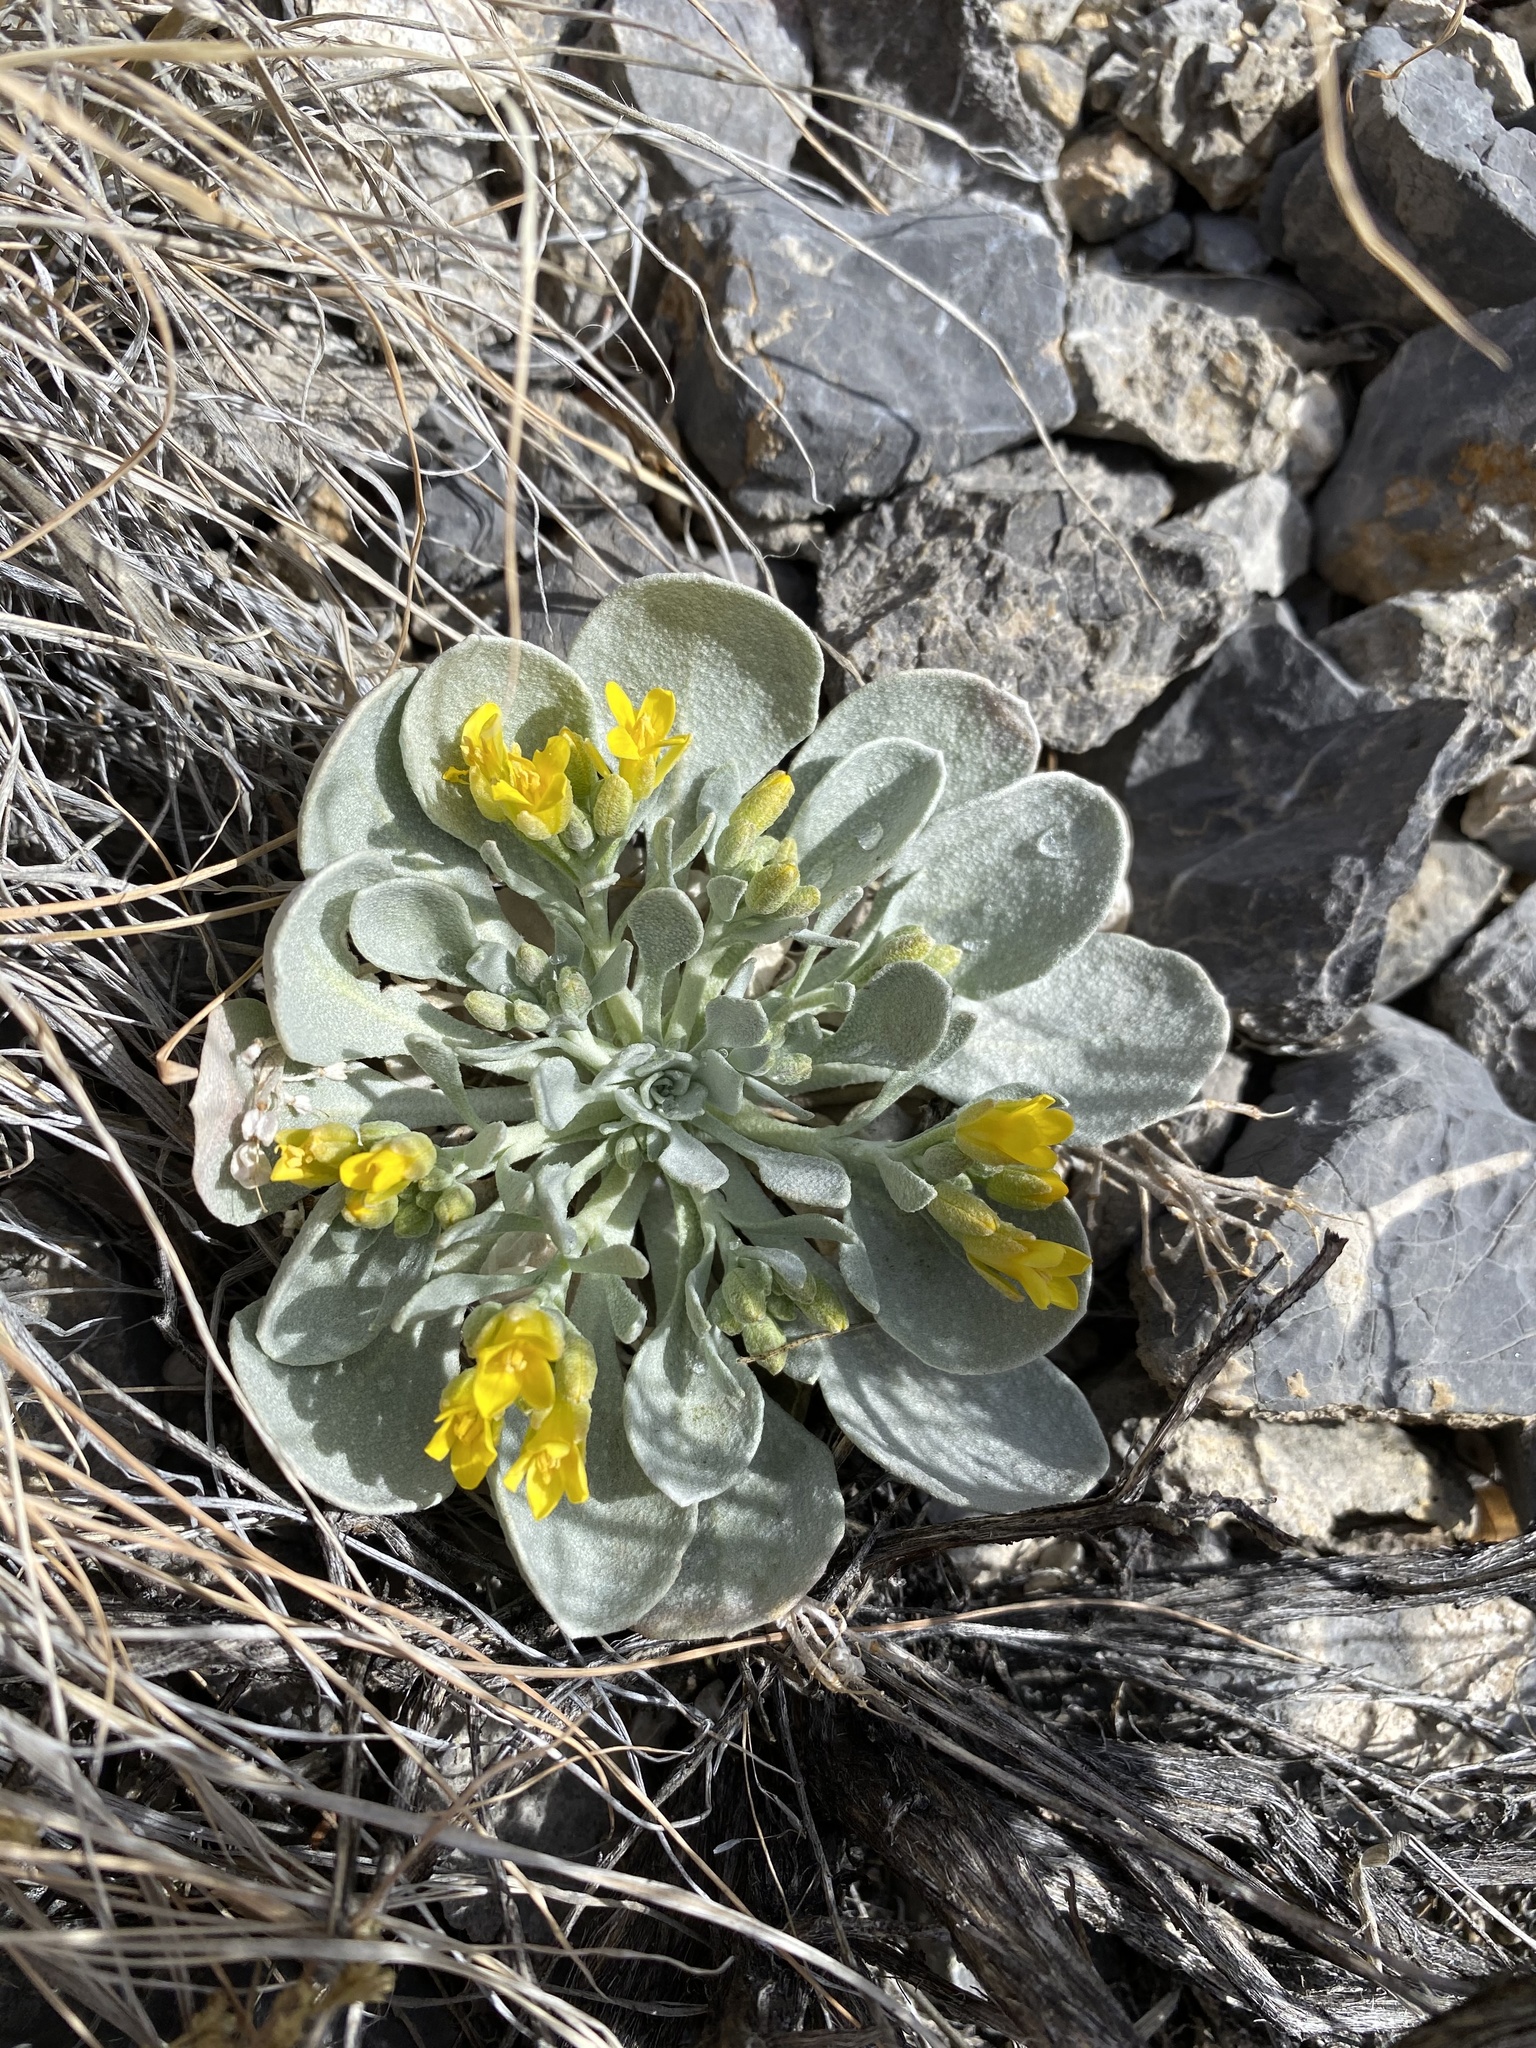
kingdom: Plantae
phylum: Tracheophyta
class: Magnoliopsida
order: Brassicales
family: Brassicaceae
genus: Physaria
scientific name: Physaria chambersii
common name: Chamber's twinpod
